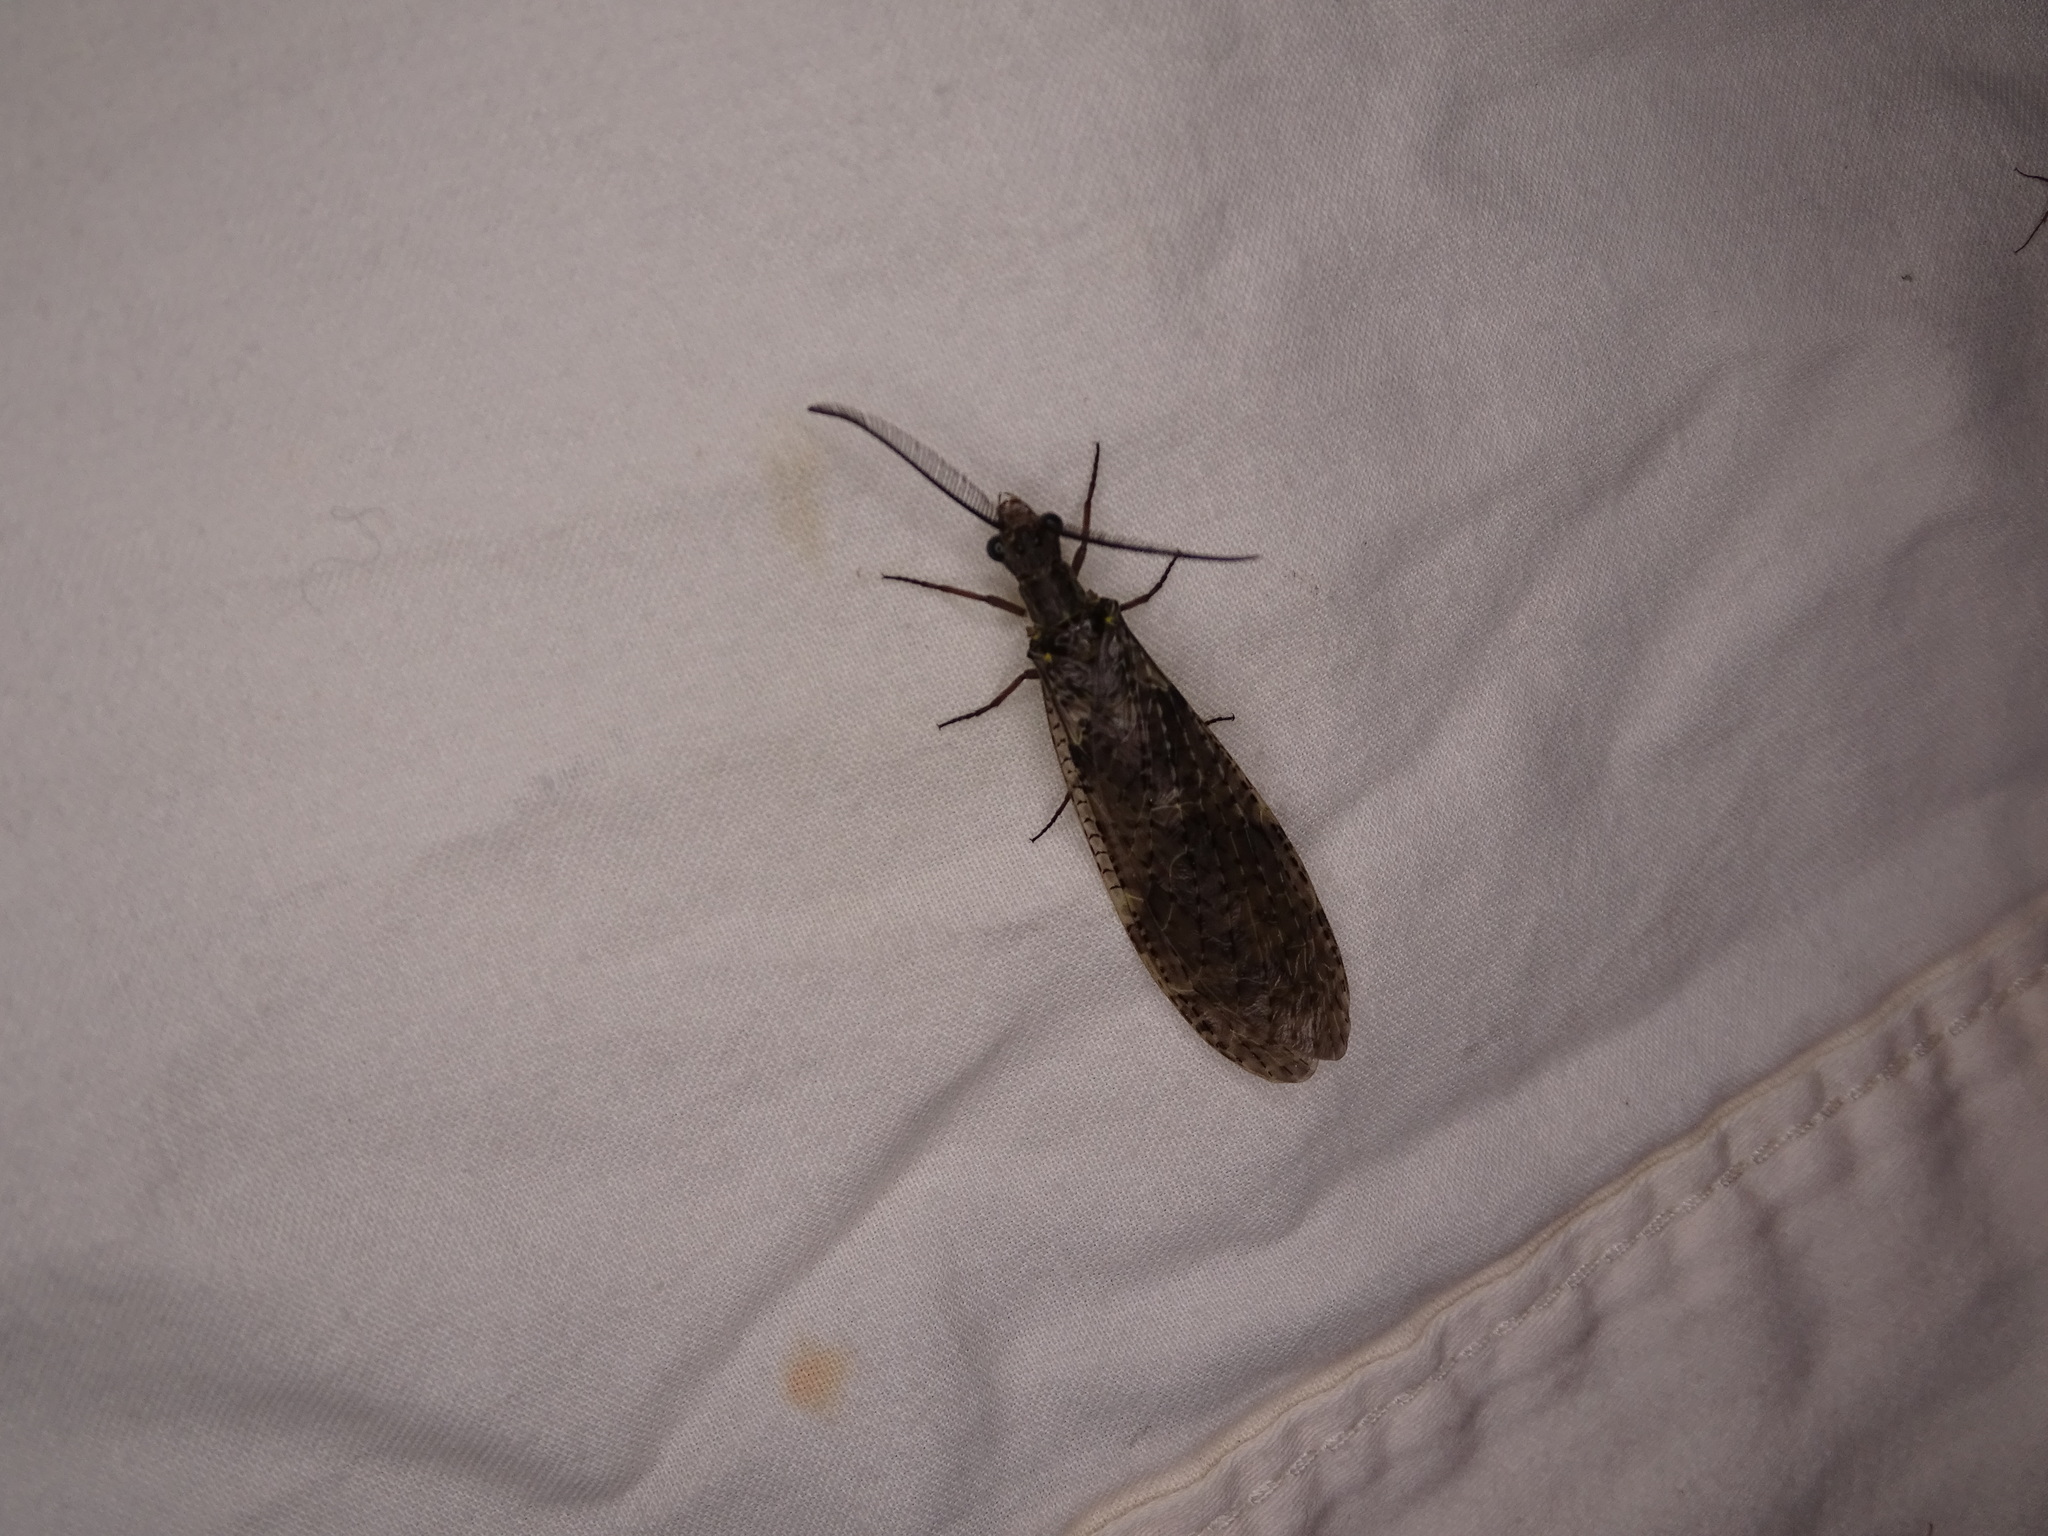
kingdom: Animalia
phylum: Arthropoda
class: Insecta
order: Megaloptera
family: Corydalidae
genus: Chauliodes
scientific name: Chauliodes rastricornis
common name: Spring fishfly
